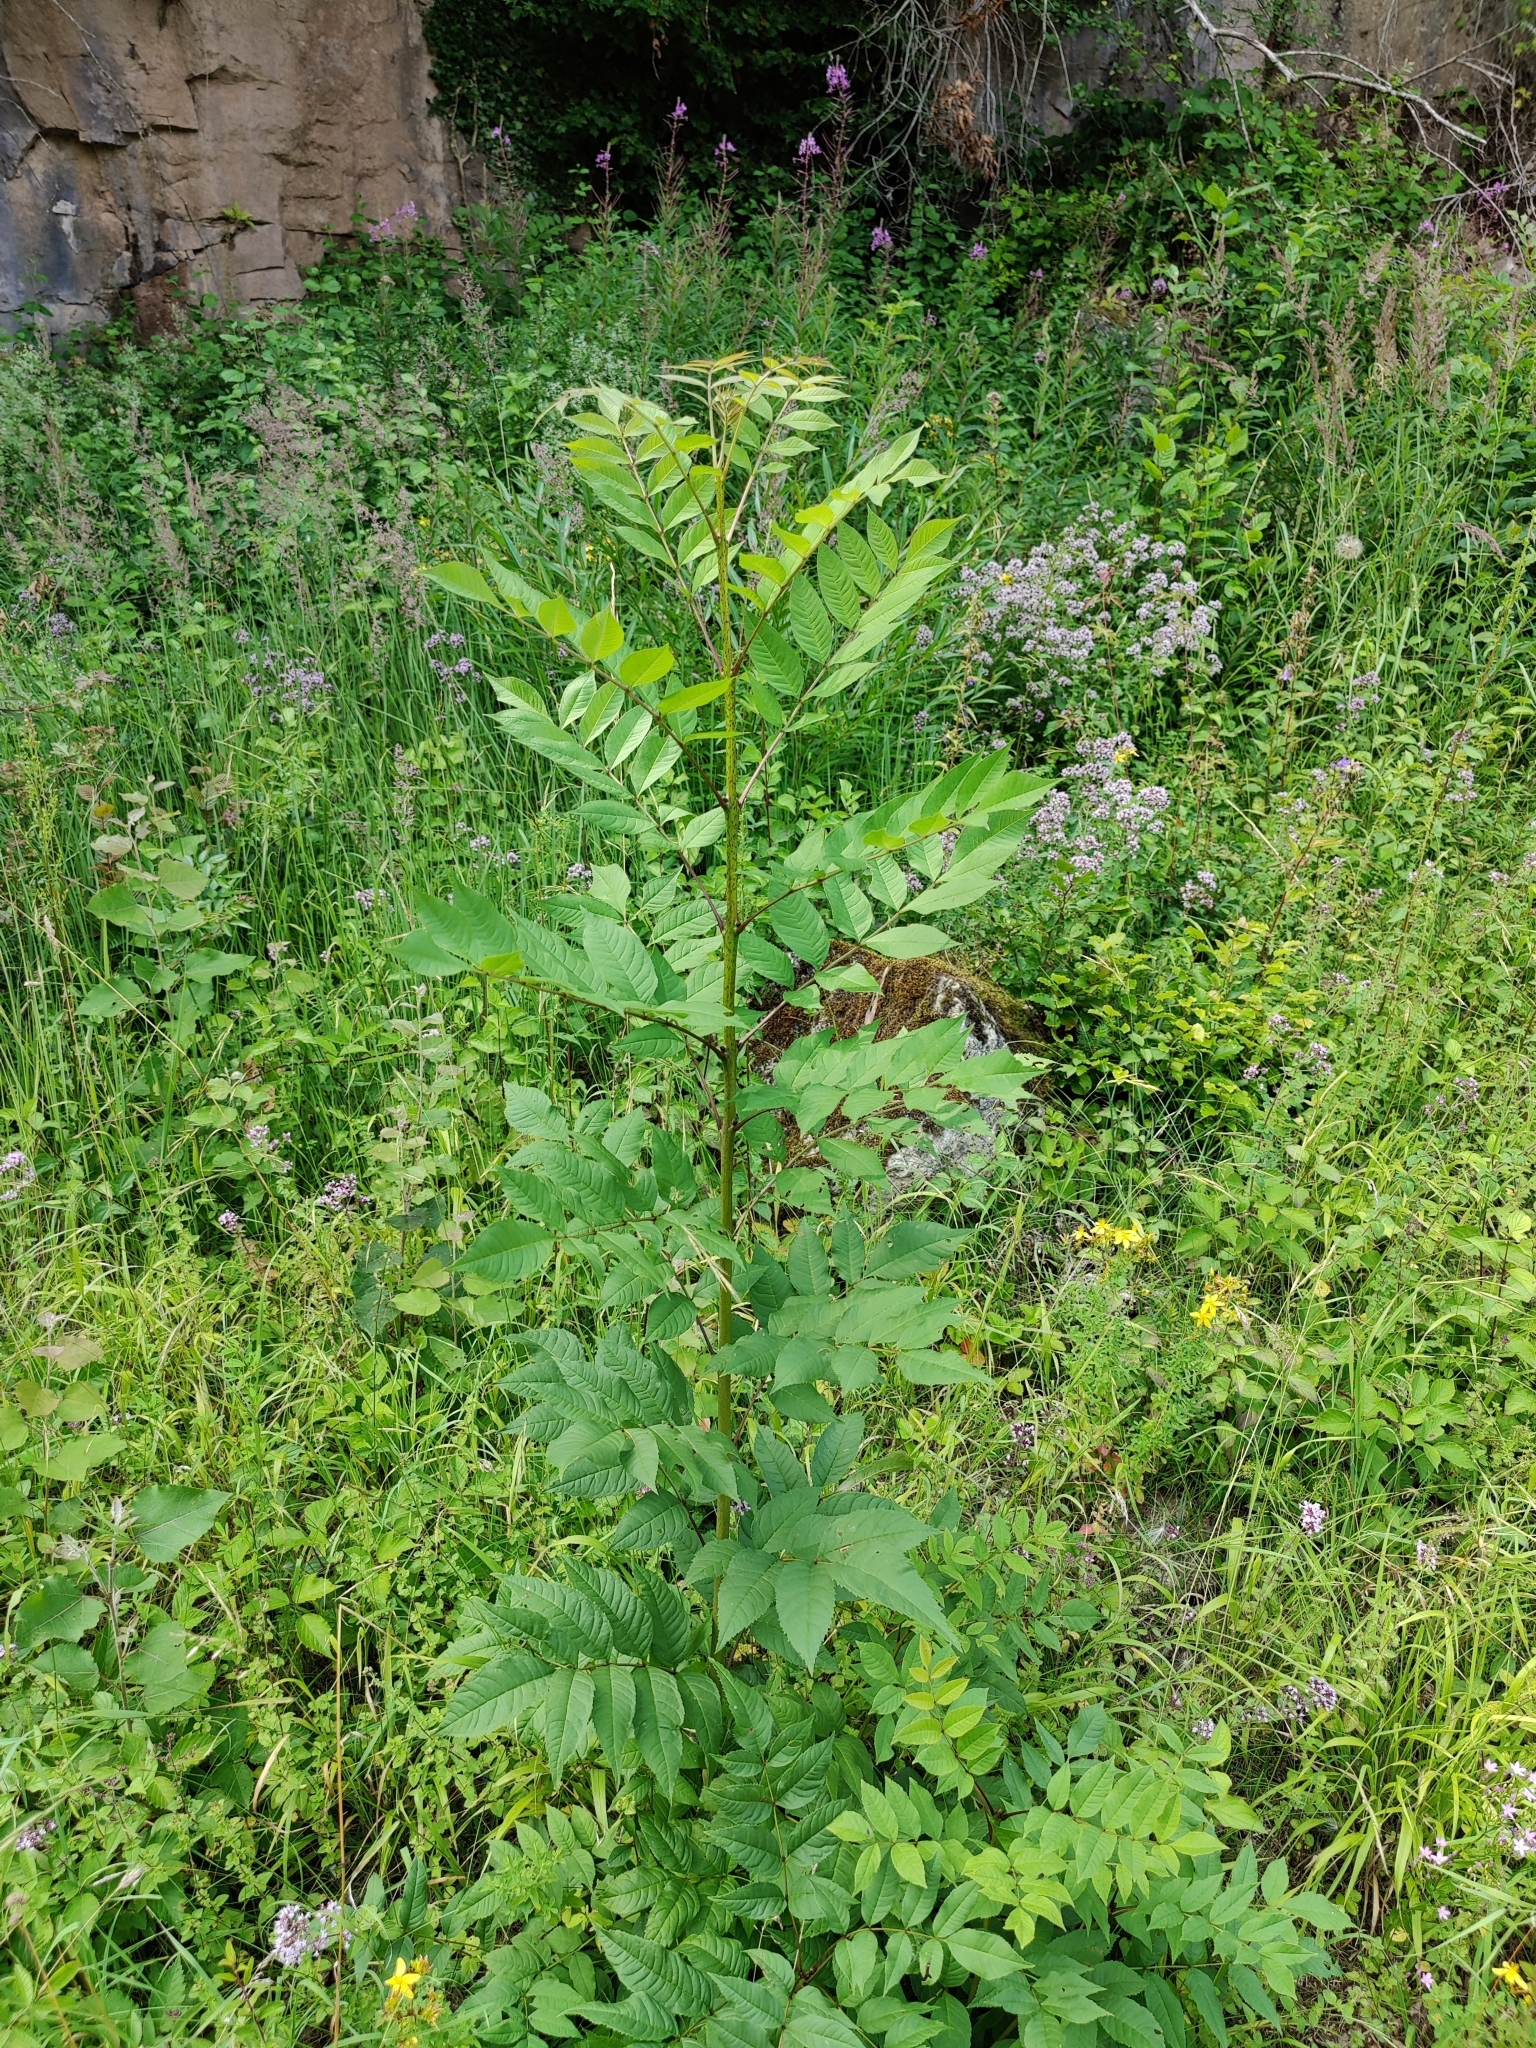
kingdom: Plantae
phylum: Tracheophyta
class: Magnoliopsida
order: Lamiales
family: Oleaceae
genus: Fraxinus
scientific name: Fraxinus excelsior
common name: European ash
